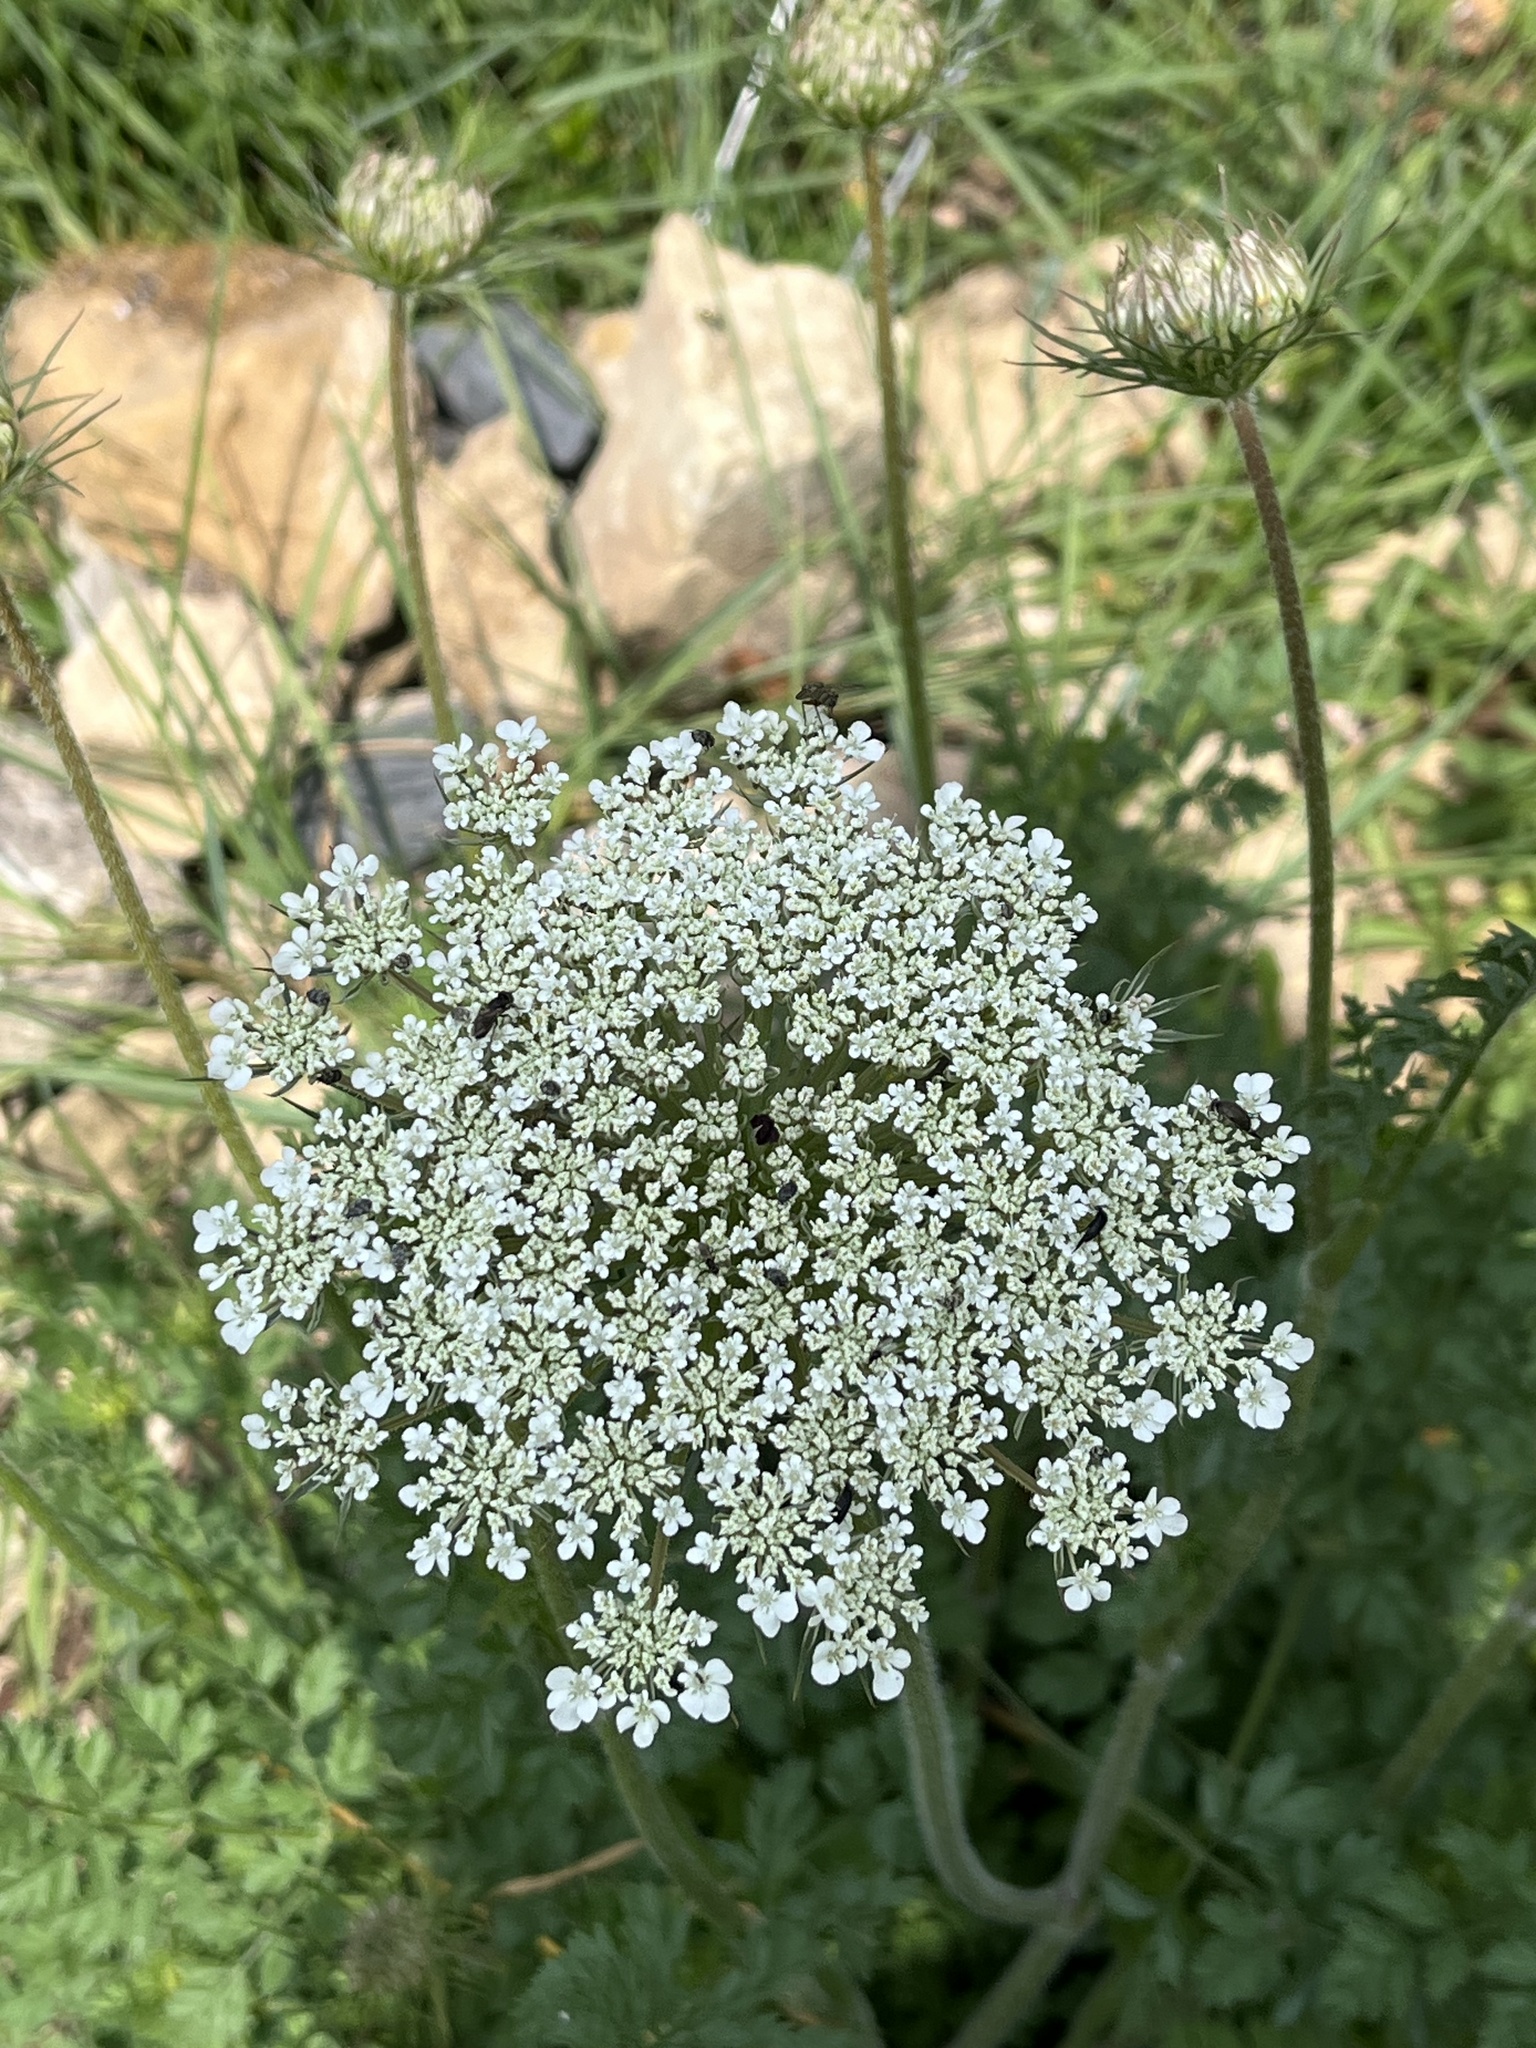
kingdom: Plantae
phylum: Tracheophyta
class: Magnoliopsida
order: Apiales
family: Apiaceae
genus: Daucus
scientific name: Daucus carota
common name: Wild carrot
